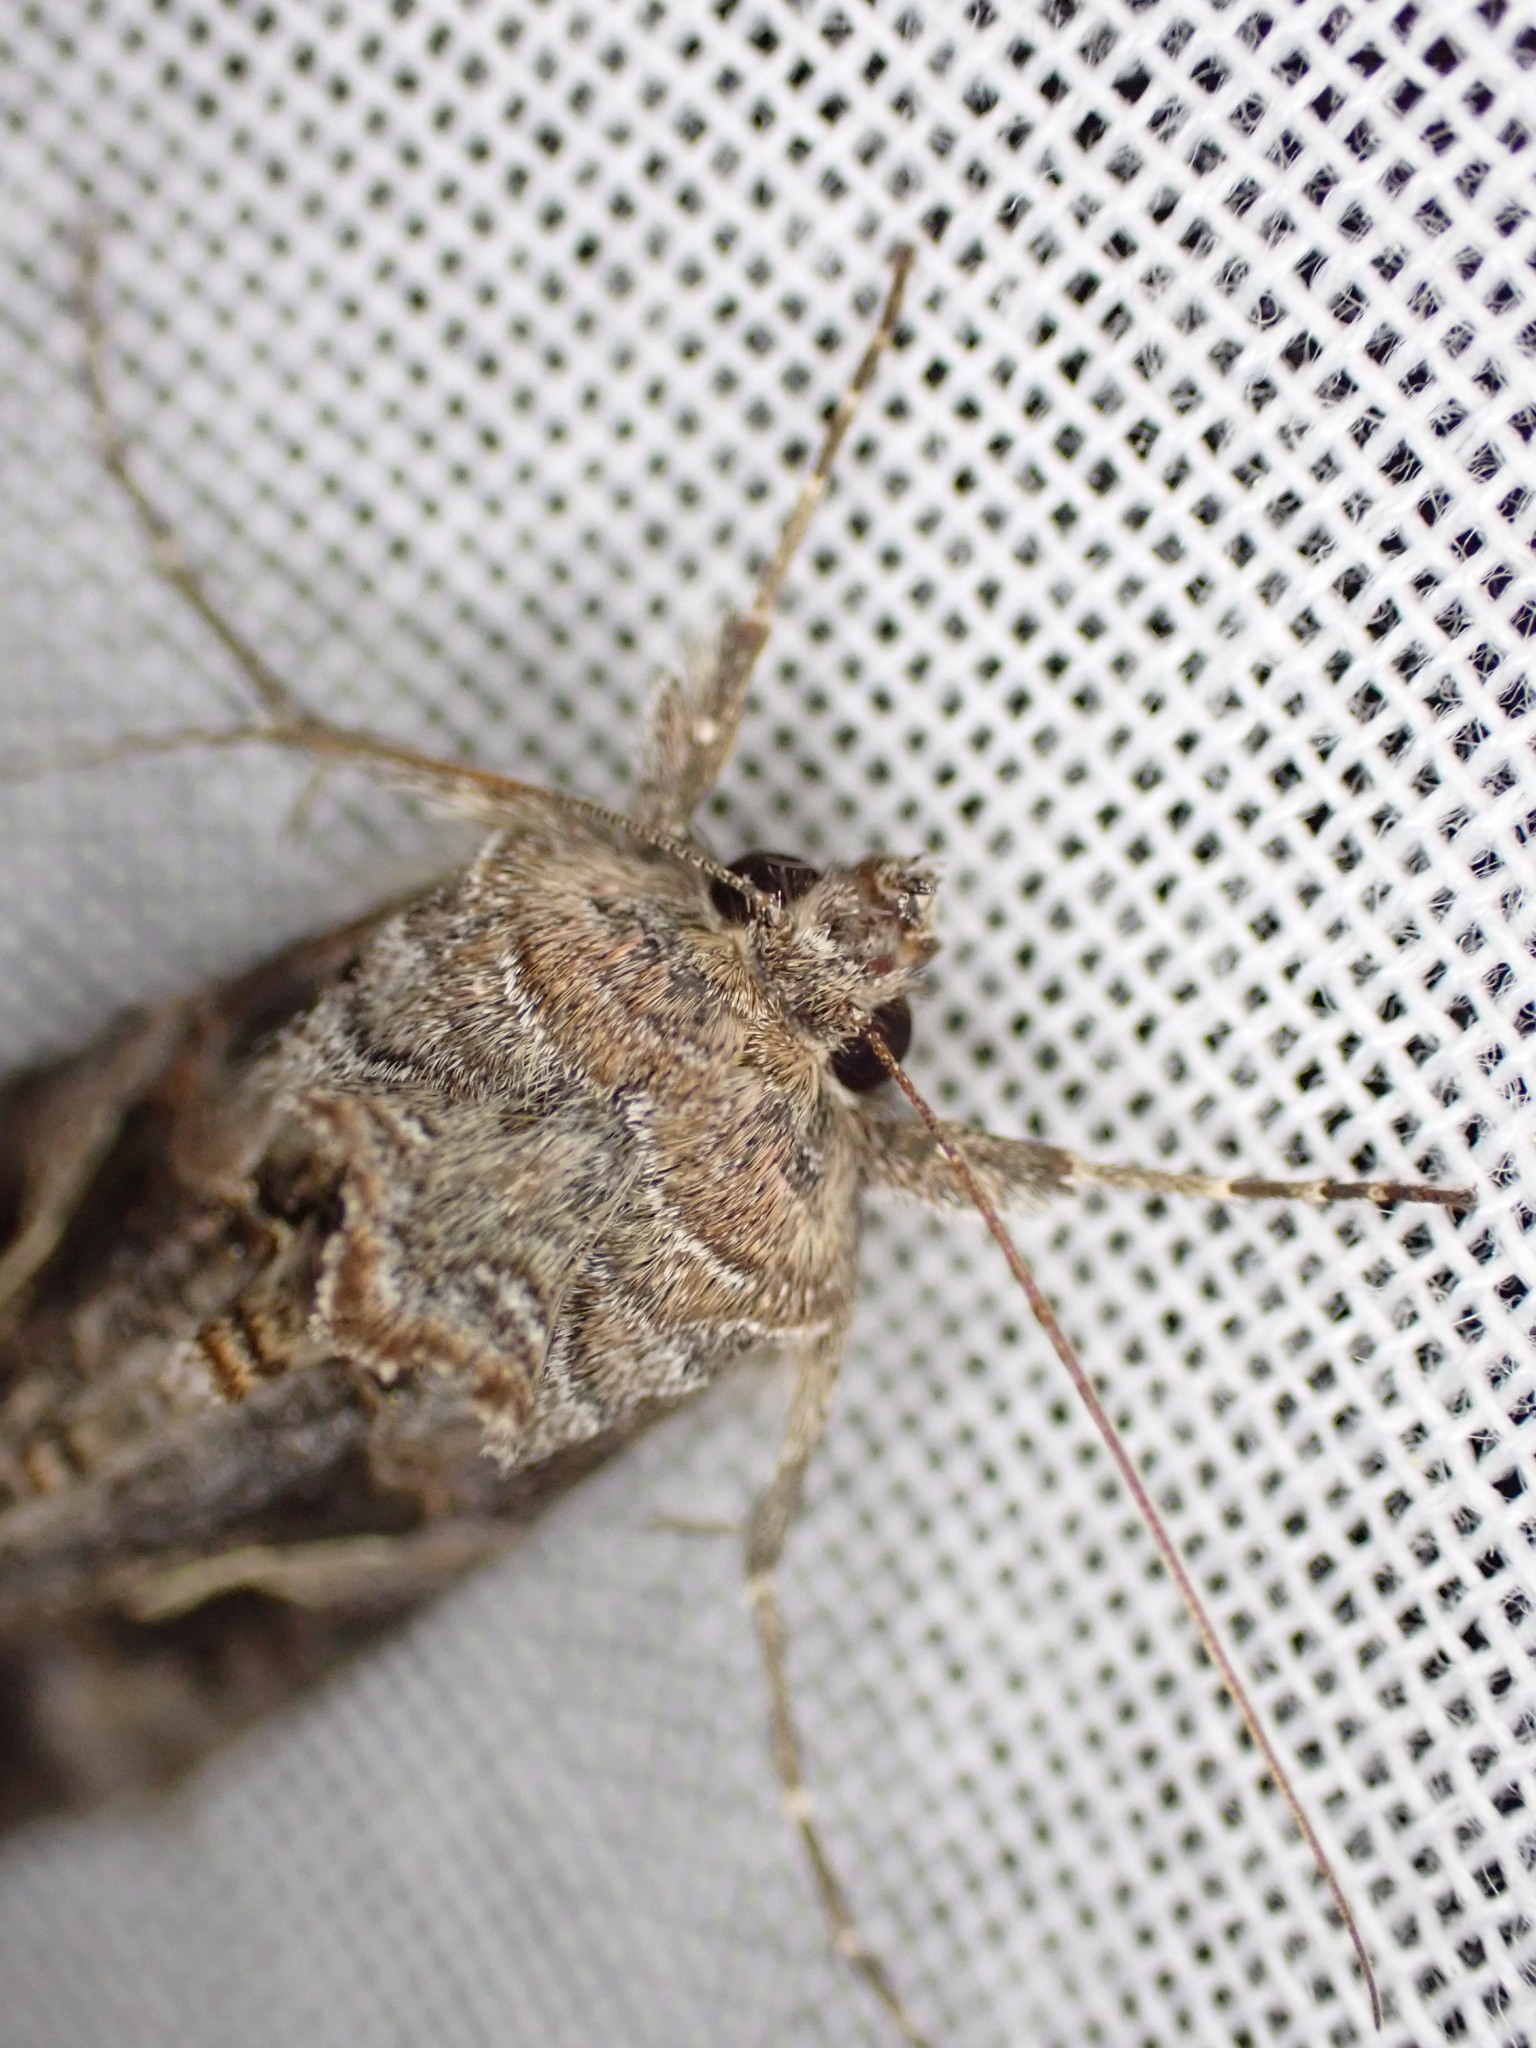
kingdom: Animalia
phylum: Arthropoda
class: Insecta
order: Lepidoptera
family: Noctuidae
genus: Autographa
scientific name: Autographa gamma
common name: Silver y
